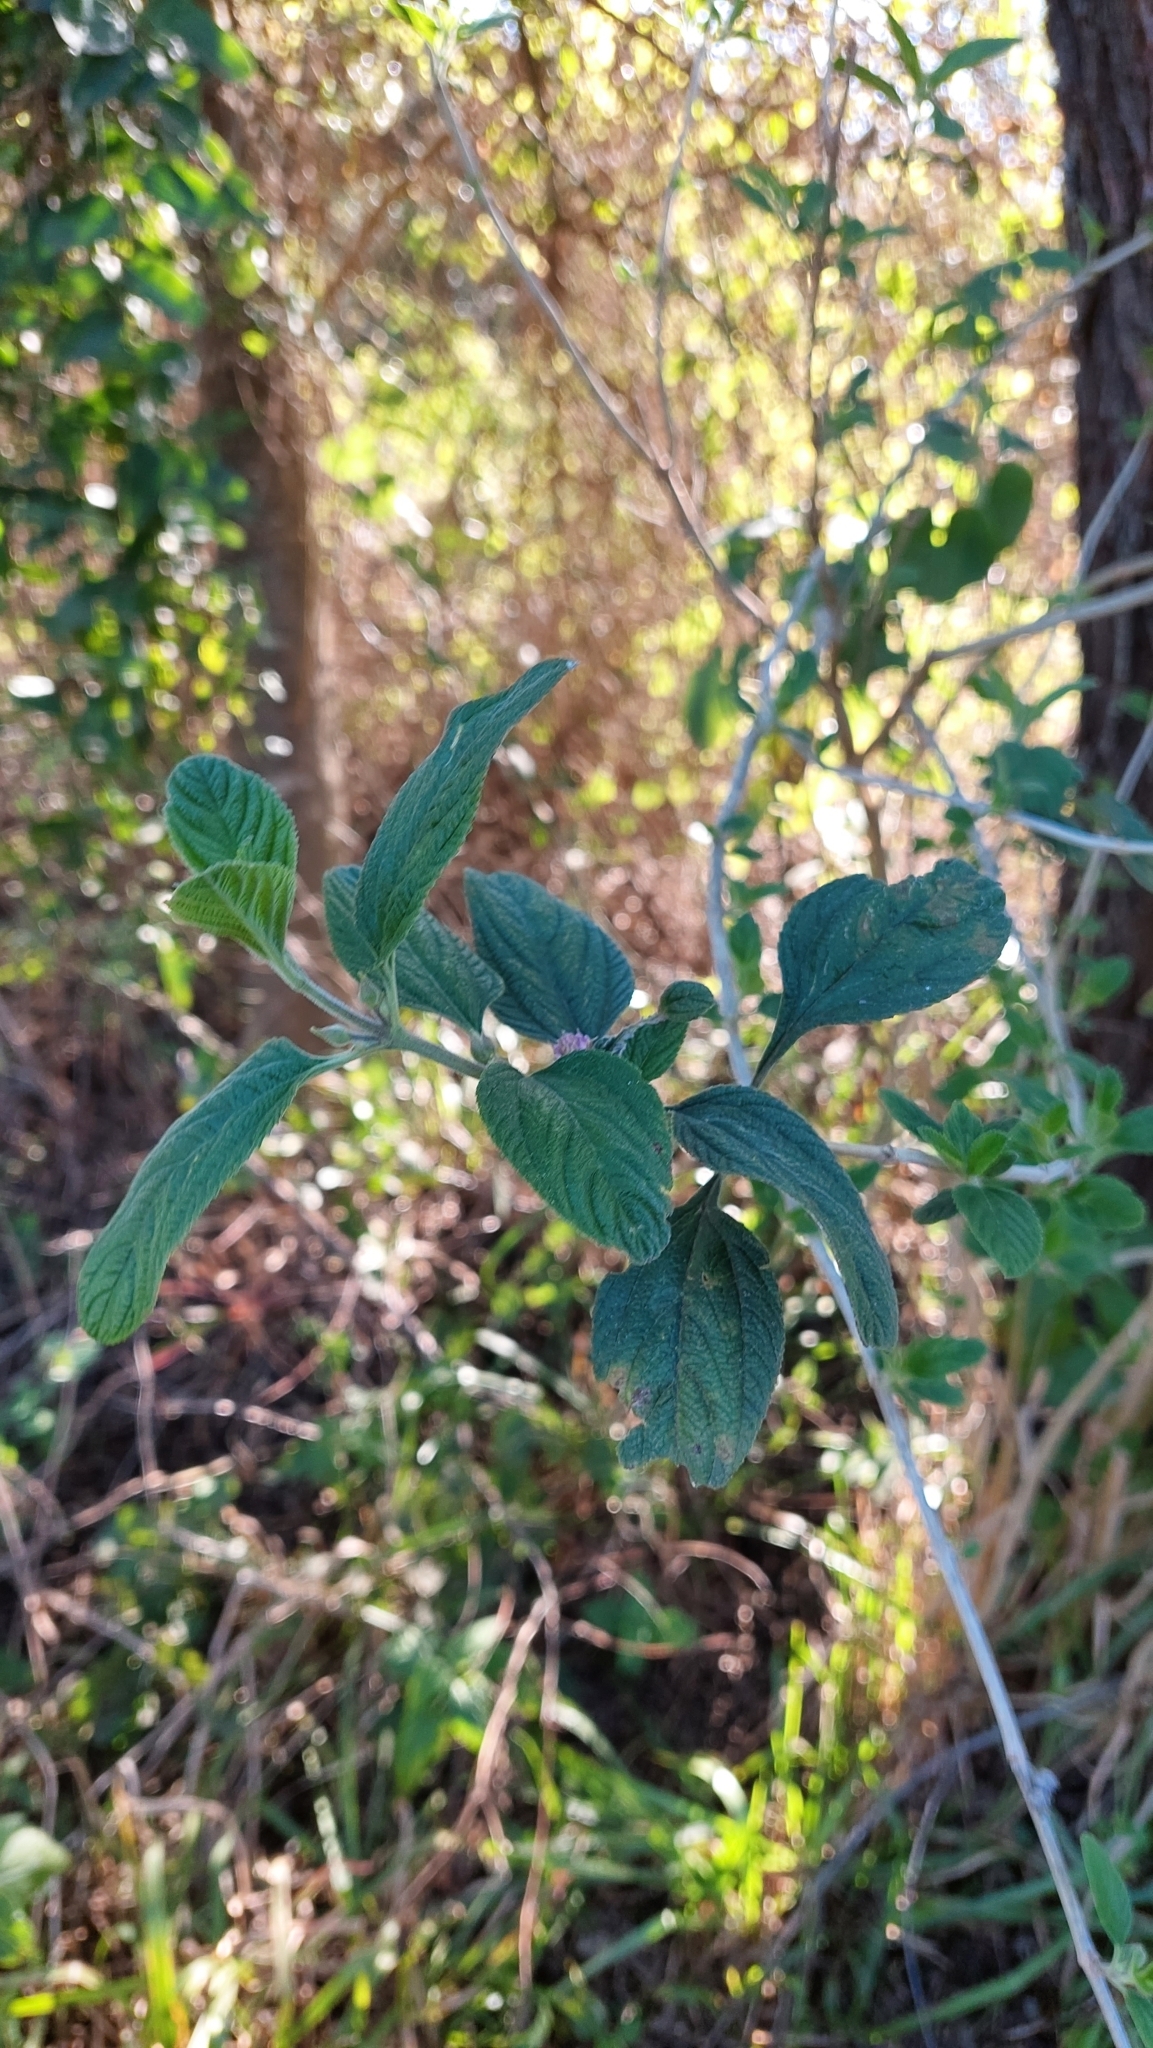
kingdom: Plantae
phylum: Tracheophyta
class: Magnoliopsida
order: Lamiales
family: Verbenaceae
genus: Lippia
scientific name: Lippia alba
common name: Bushy matgrass
